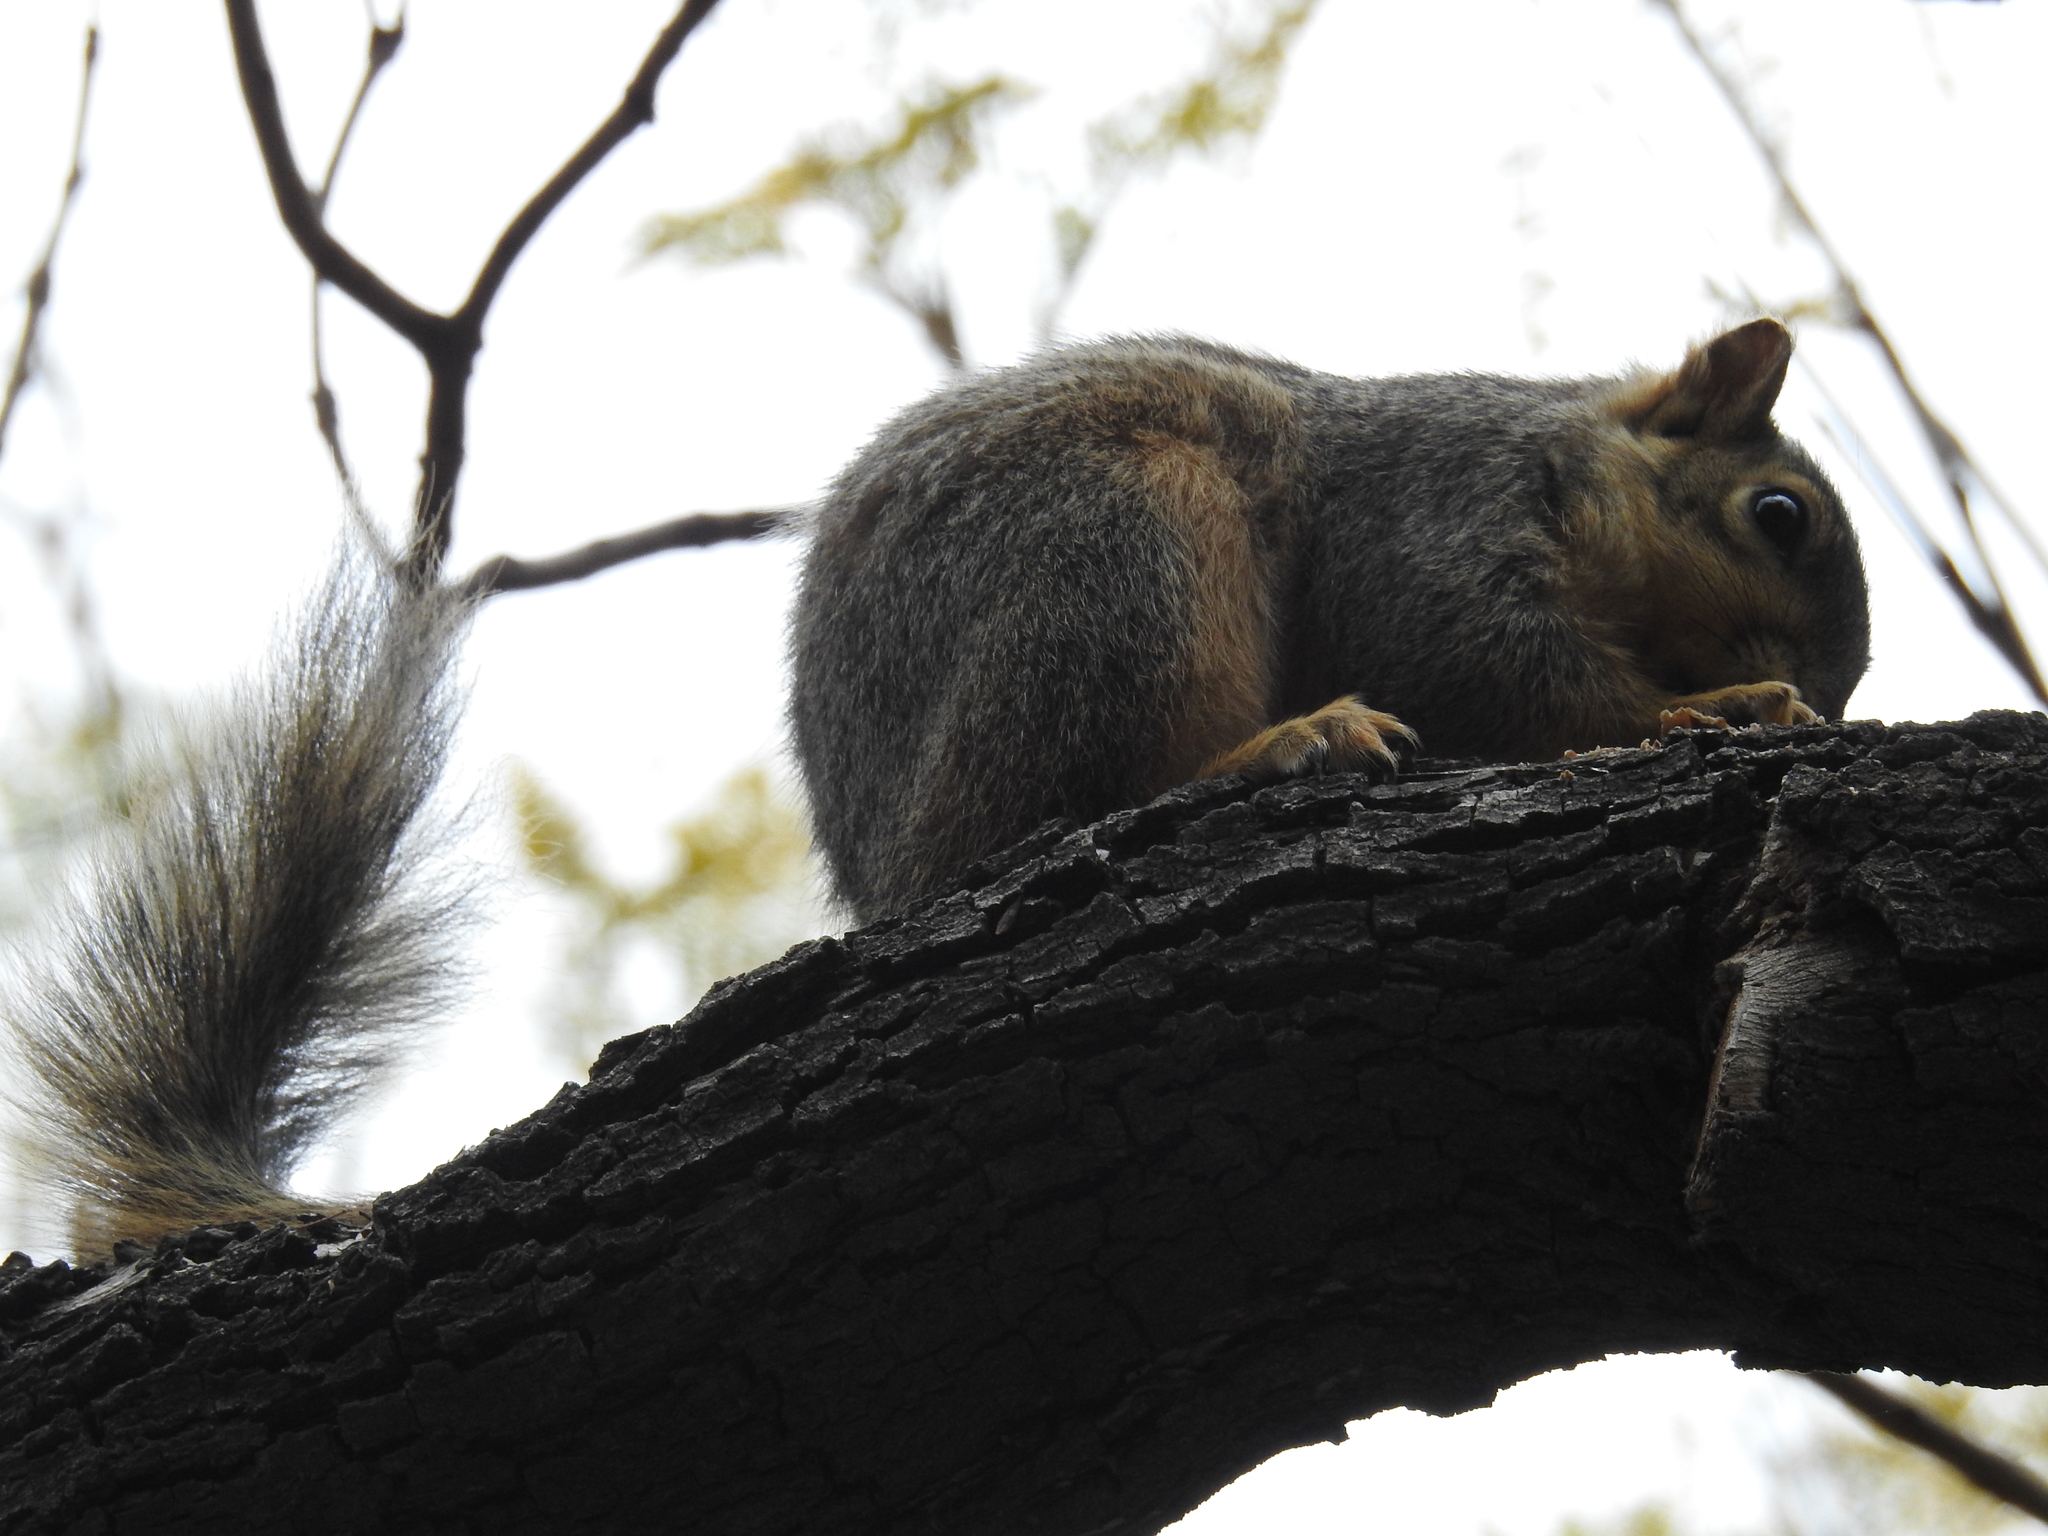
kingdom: Animalia
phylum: Chordata
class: Mammalia
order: Rodentia
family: Sciuridae
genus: Sciurus
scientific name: Sciurus niger
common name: Fox squirrel
